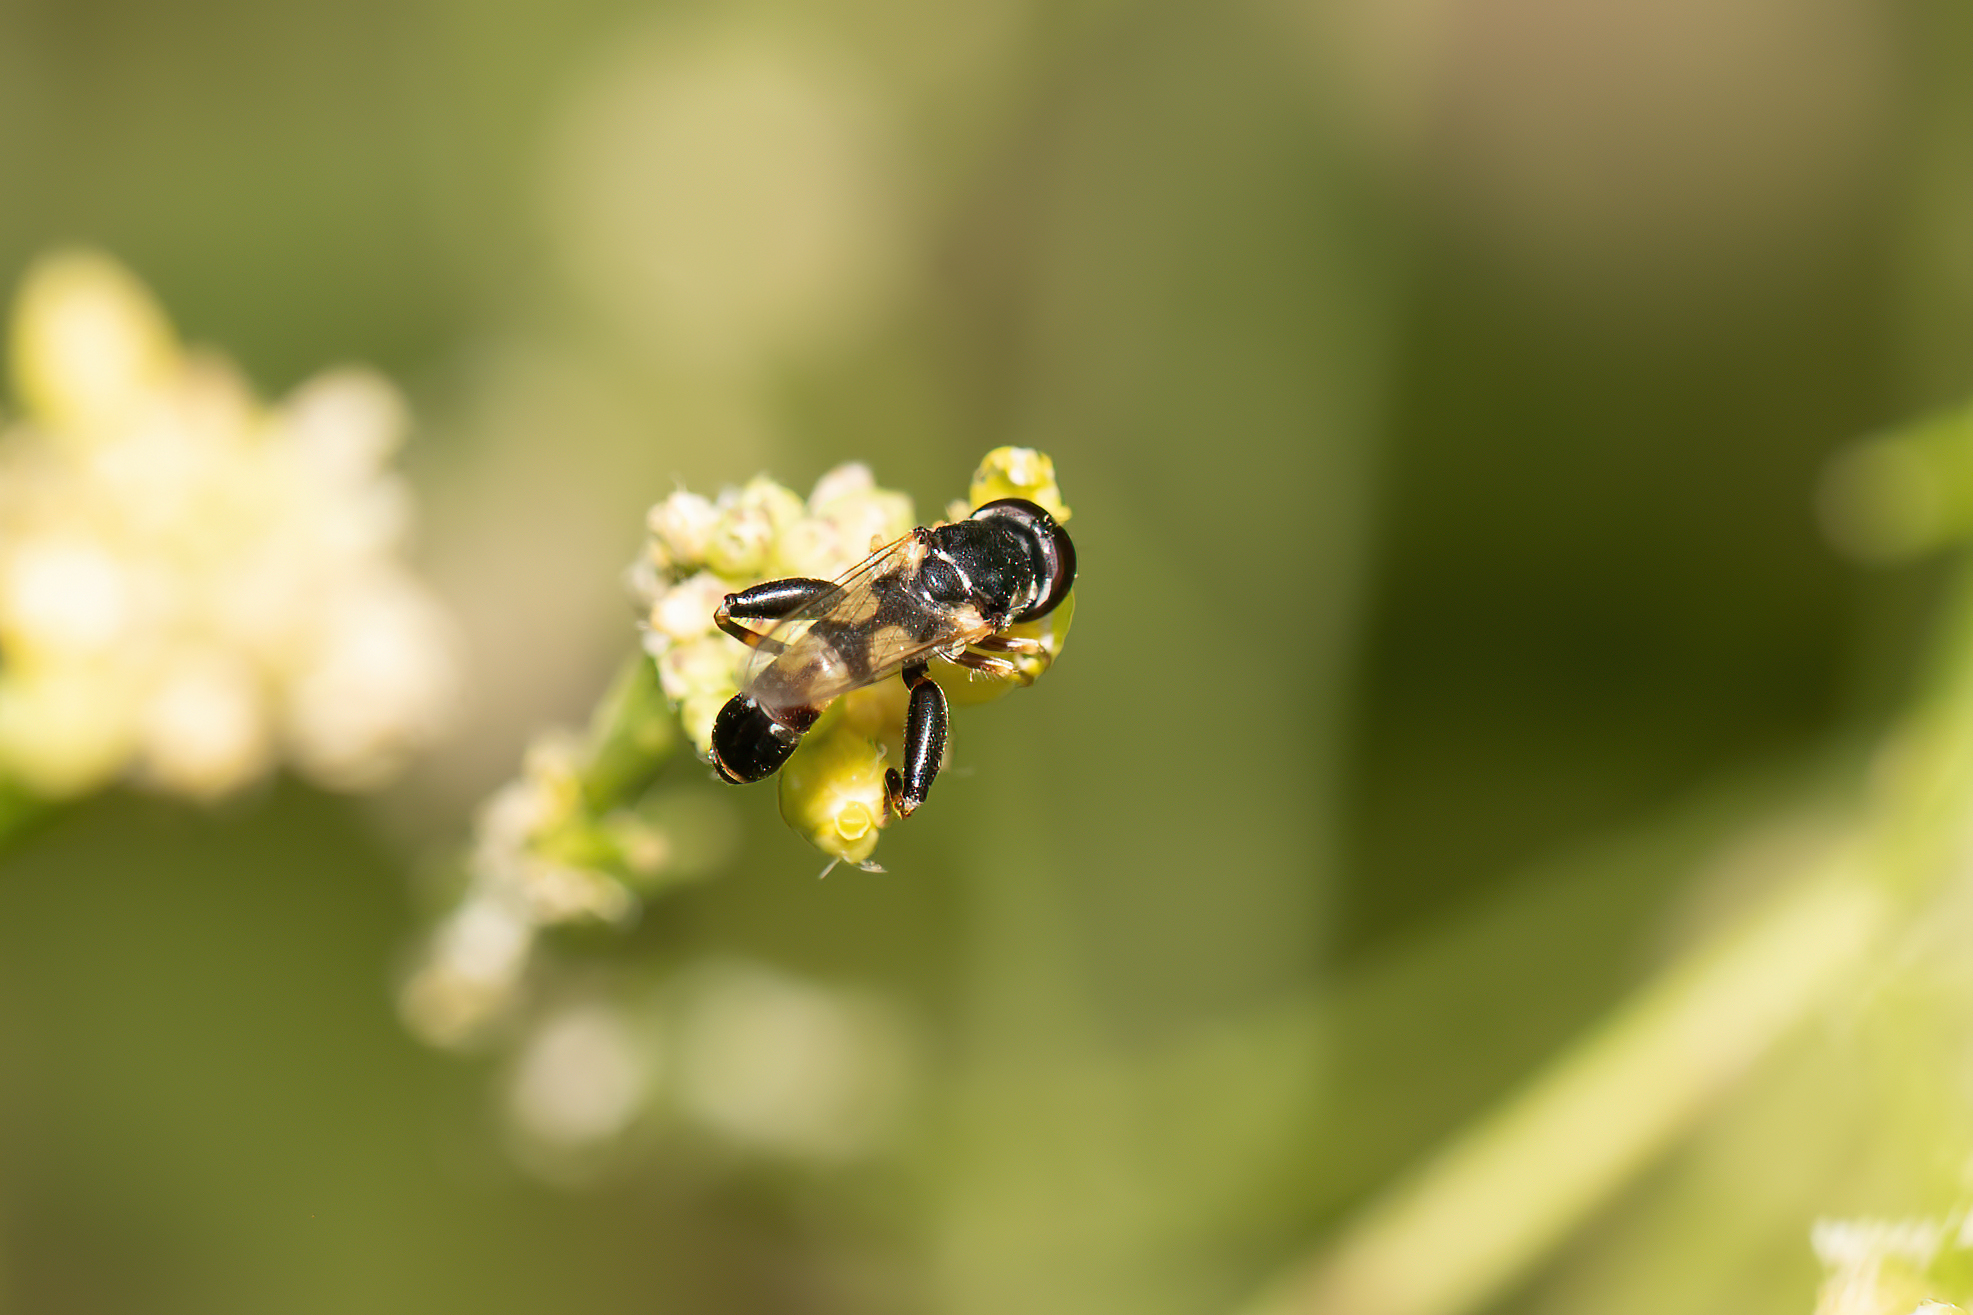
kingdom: Animalia
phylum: Arthropoda
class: Insecta
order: Diptera
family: Syrphidae
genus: Syritta
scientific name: Syritta pipiens
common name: Hover fly
